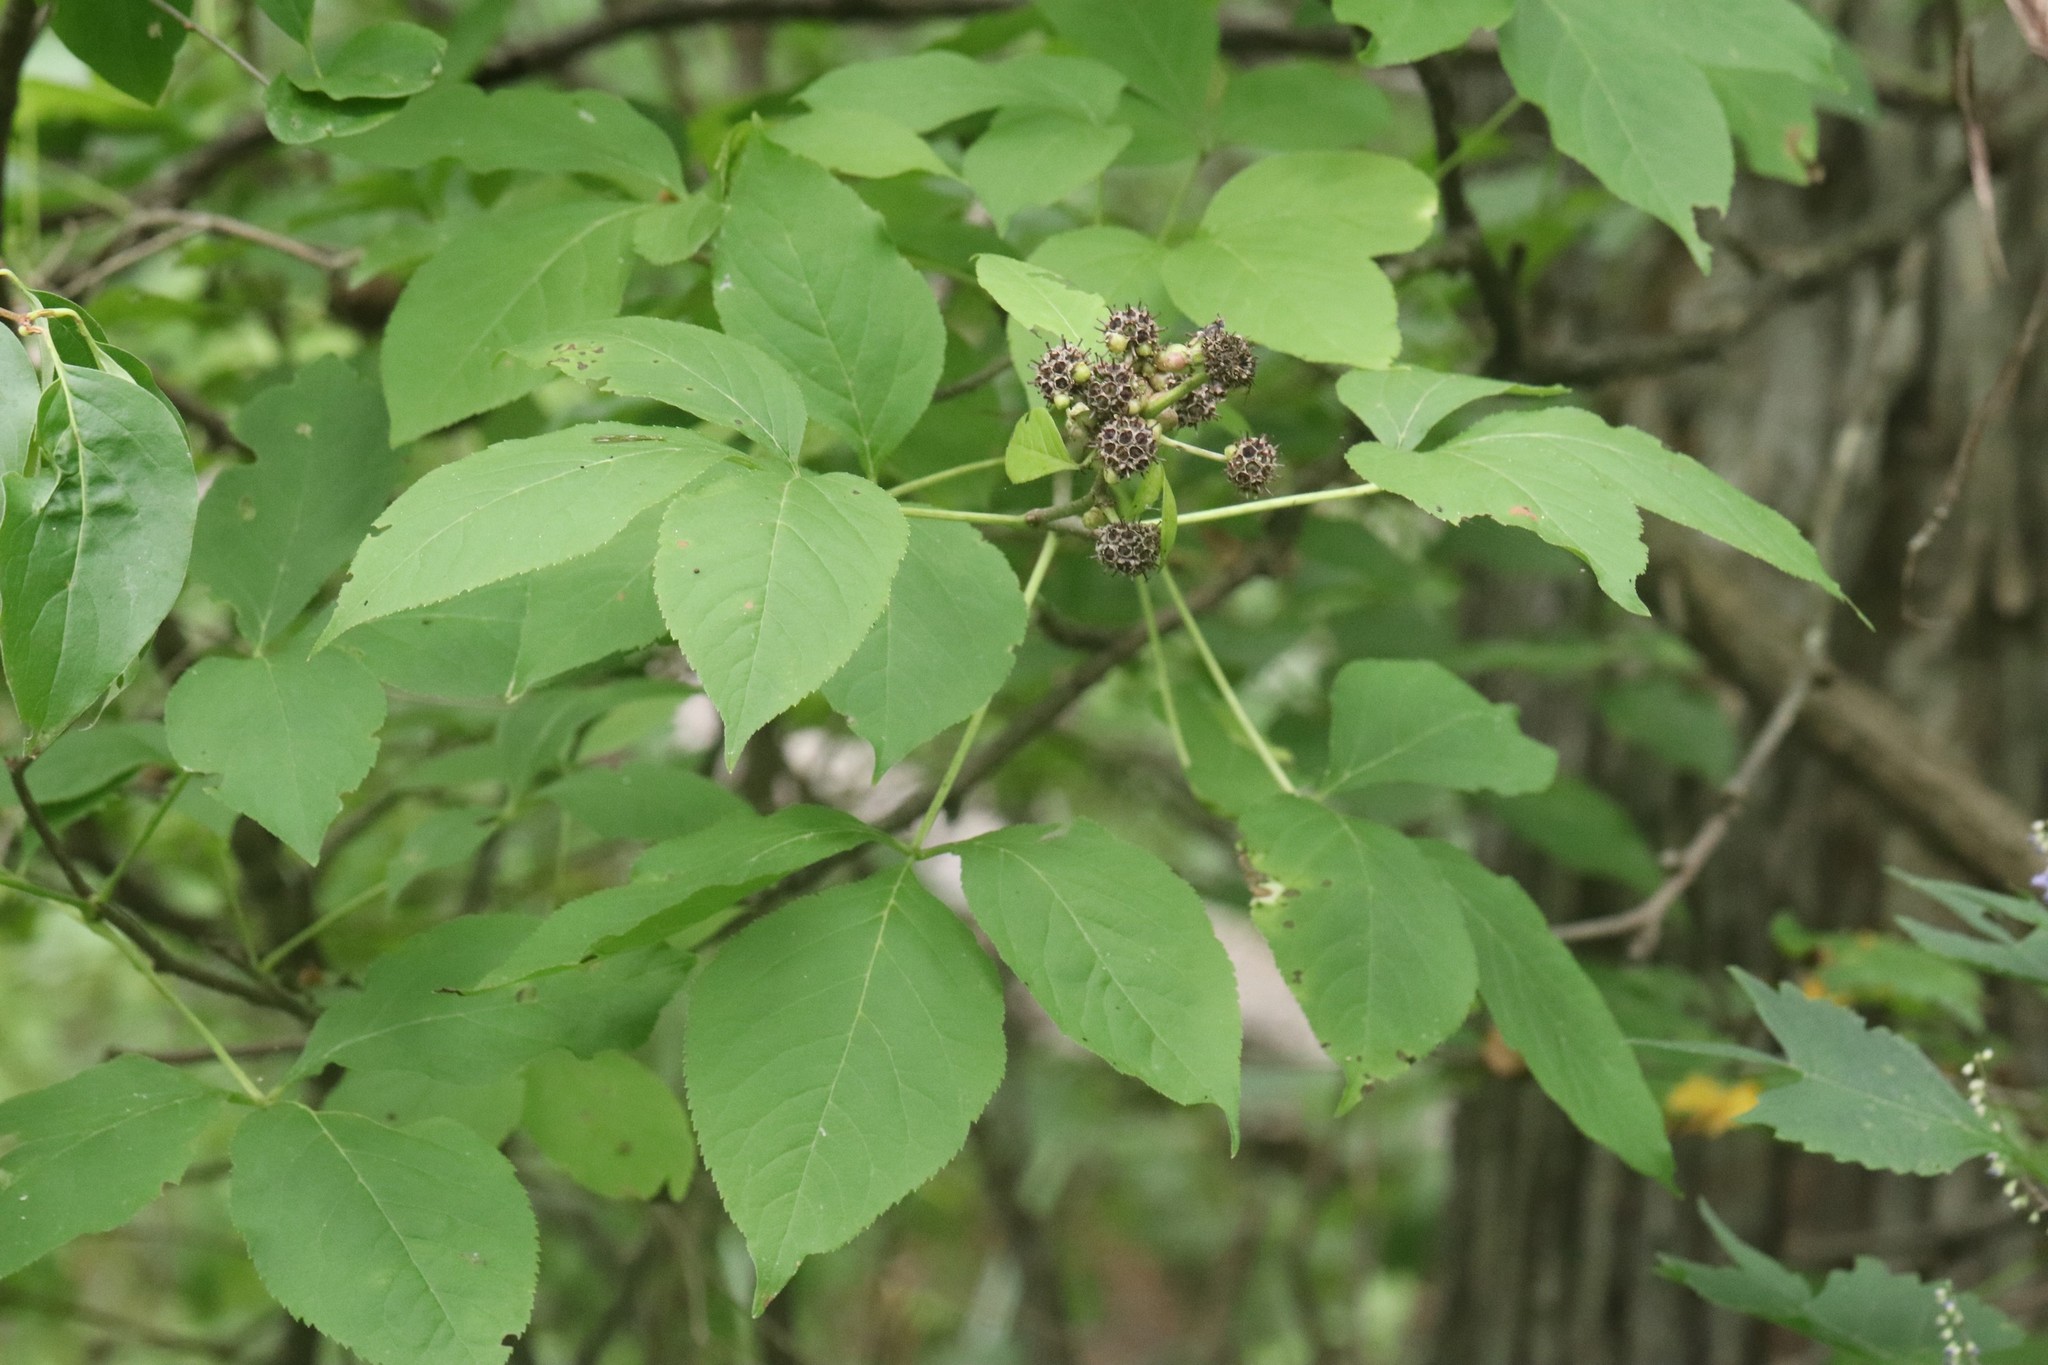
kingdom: Plantae
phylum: Tracheophyta
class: Magnoliopsida
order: Apiales
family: Araliaceae
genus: Eleutherococcus
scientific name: Eleutherococcus sessiliflorus
